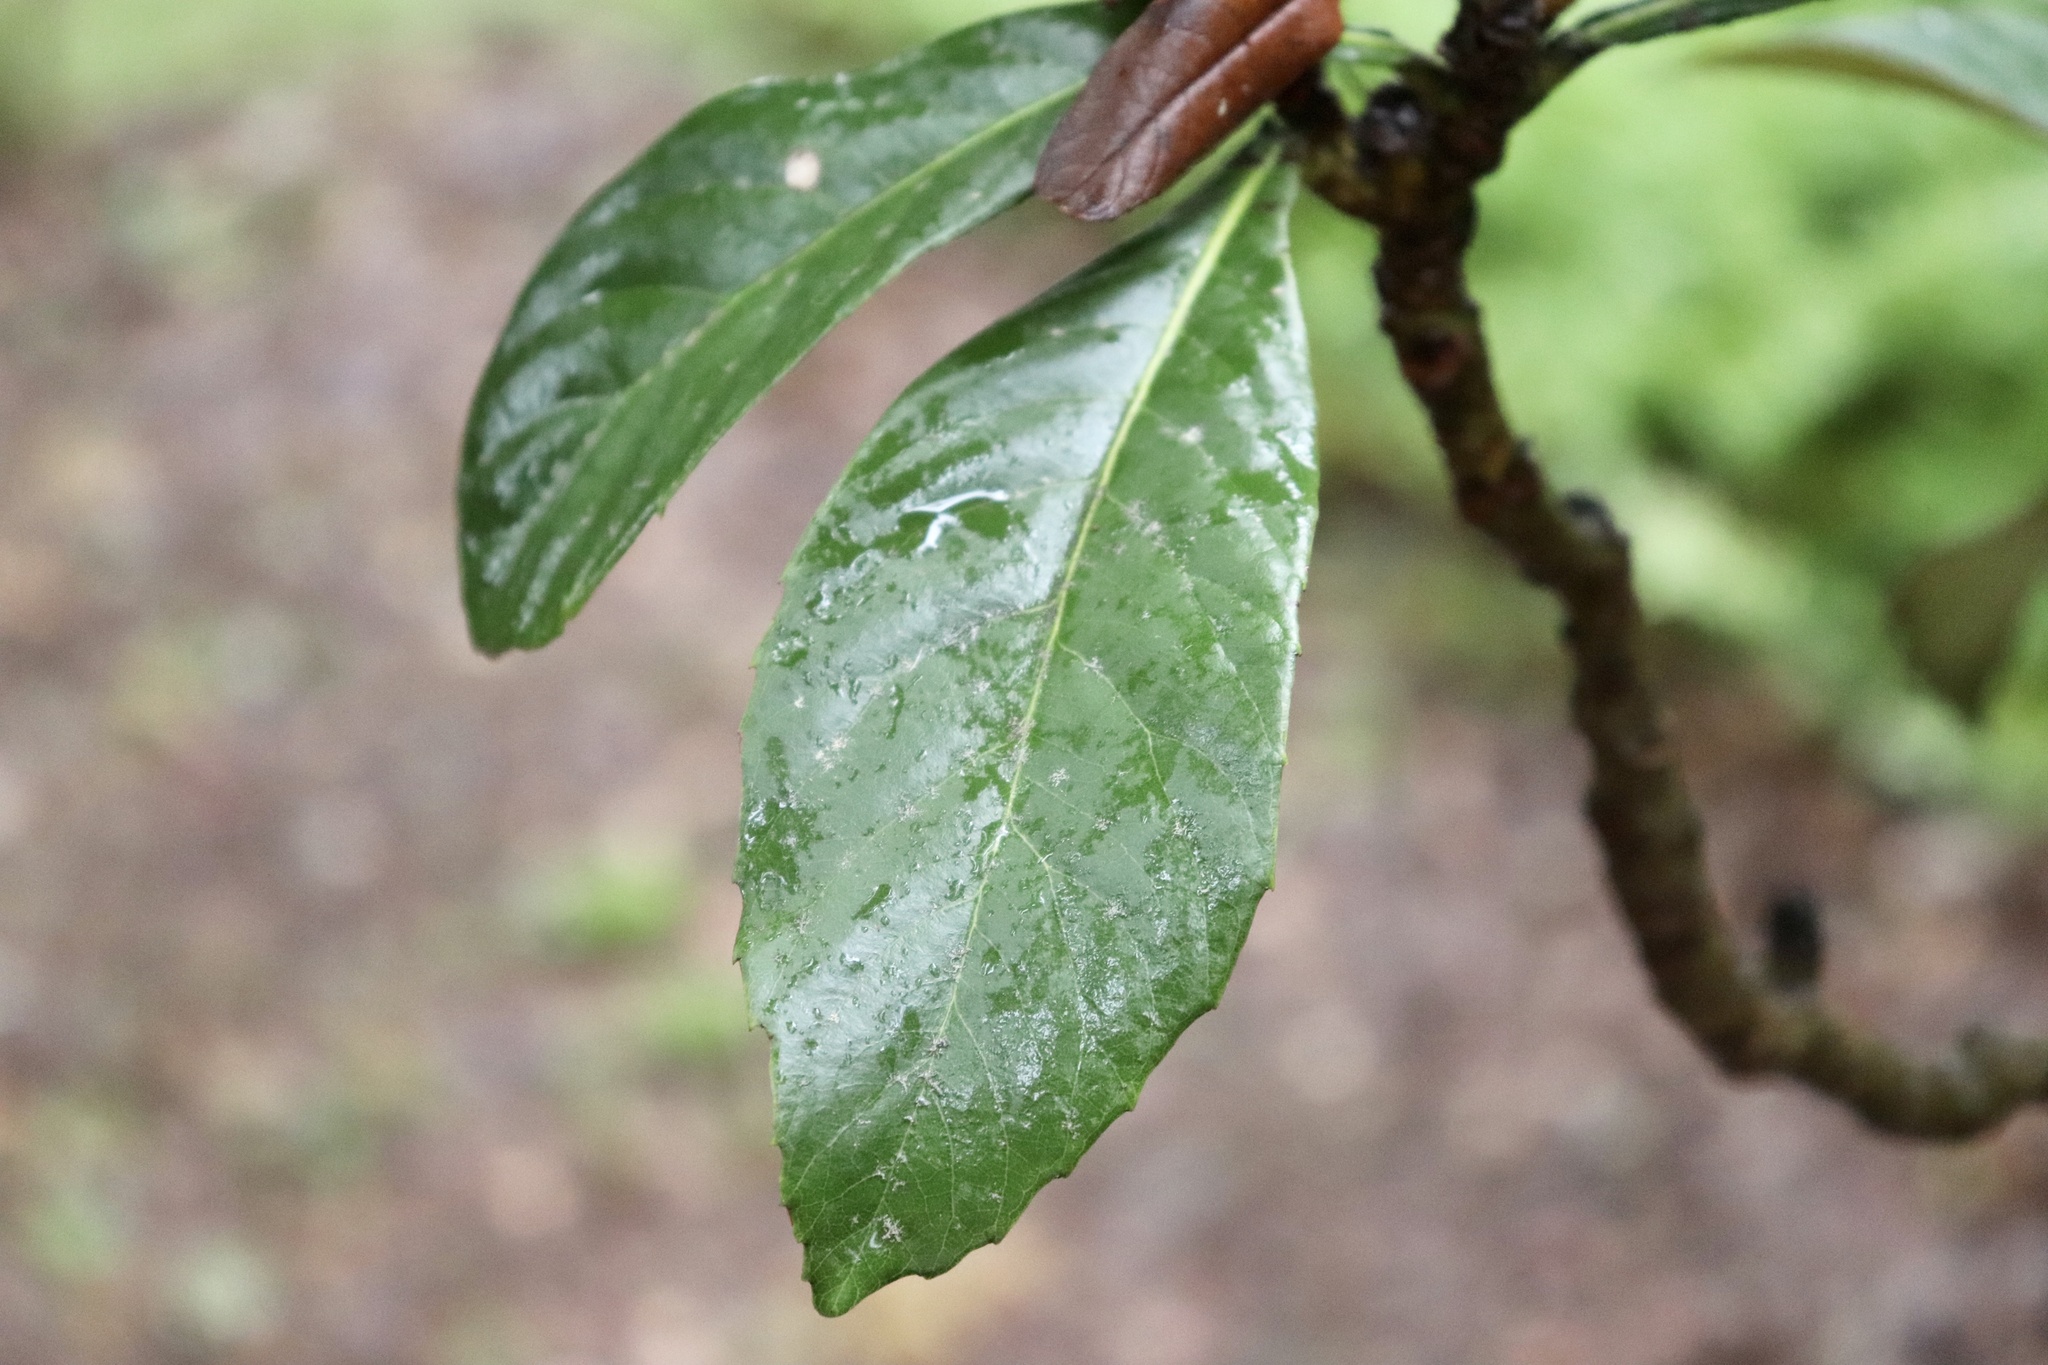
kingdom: Plantae
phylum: Tracheophyta
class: Magnoliopsida
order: Rosales
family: Rosaceae
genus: Rhaphiolepis
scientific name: Rhaphiolepis bibas
